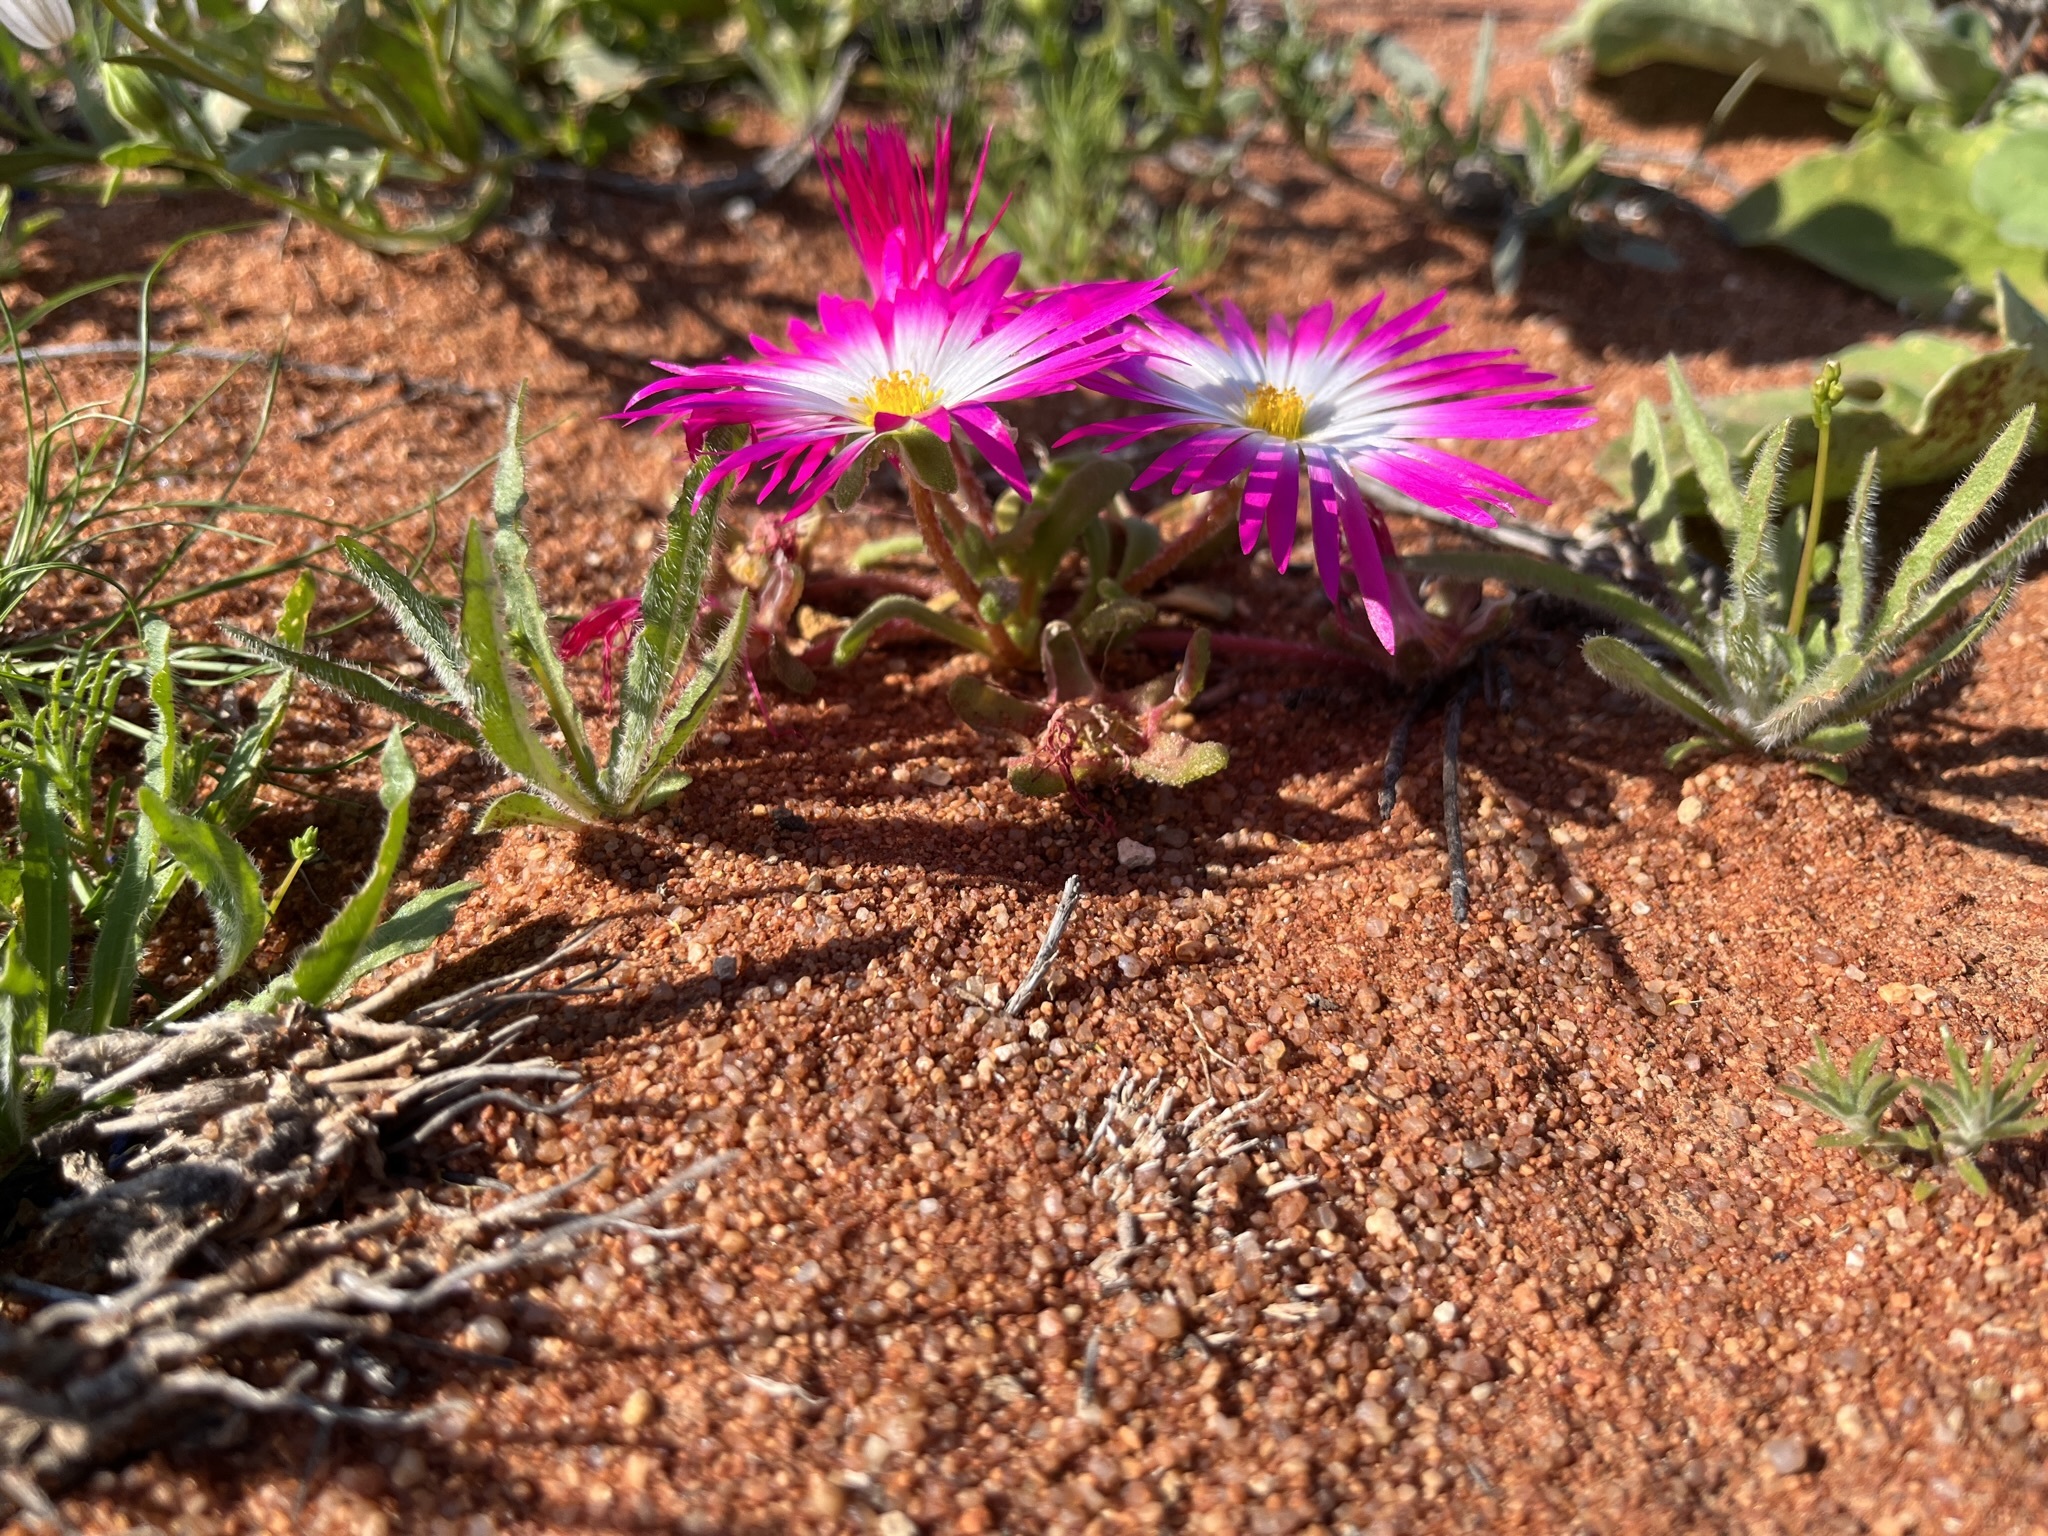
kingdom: Plantae
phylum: Tracheophyta
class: Magnoliopsida
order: Caryophyllales
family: Aizoaceae
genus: Cleretum
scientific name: Cleretum hestermalense
